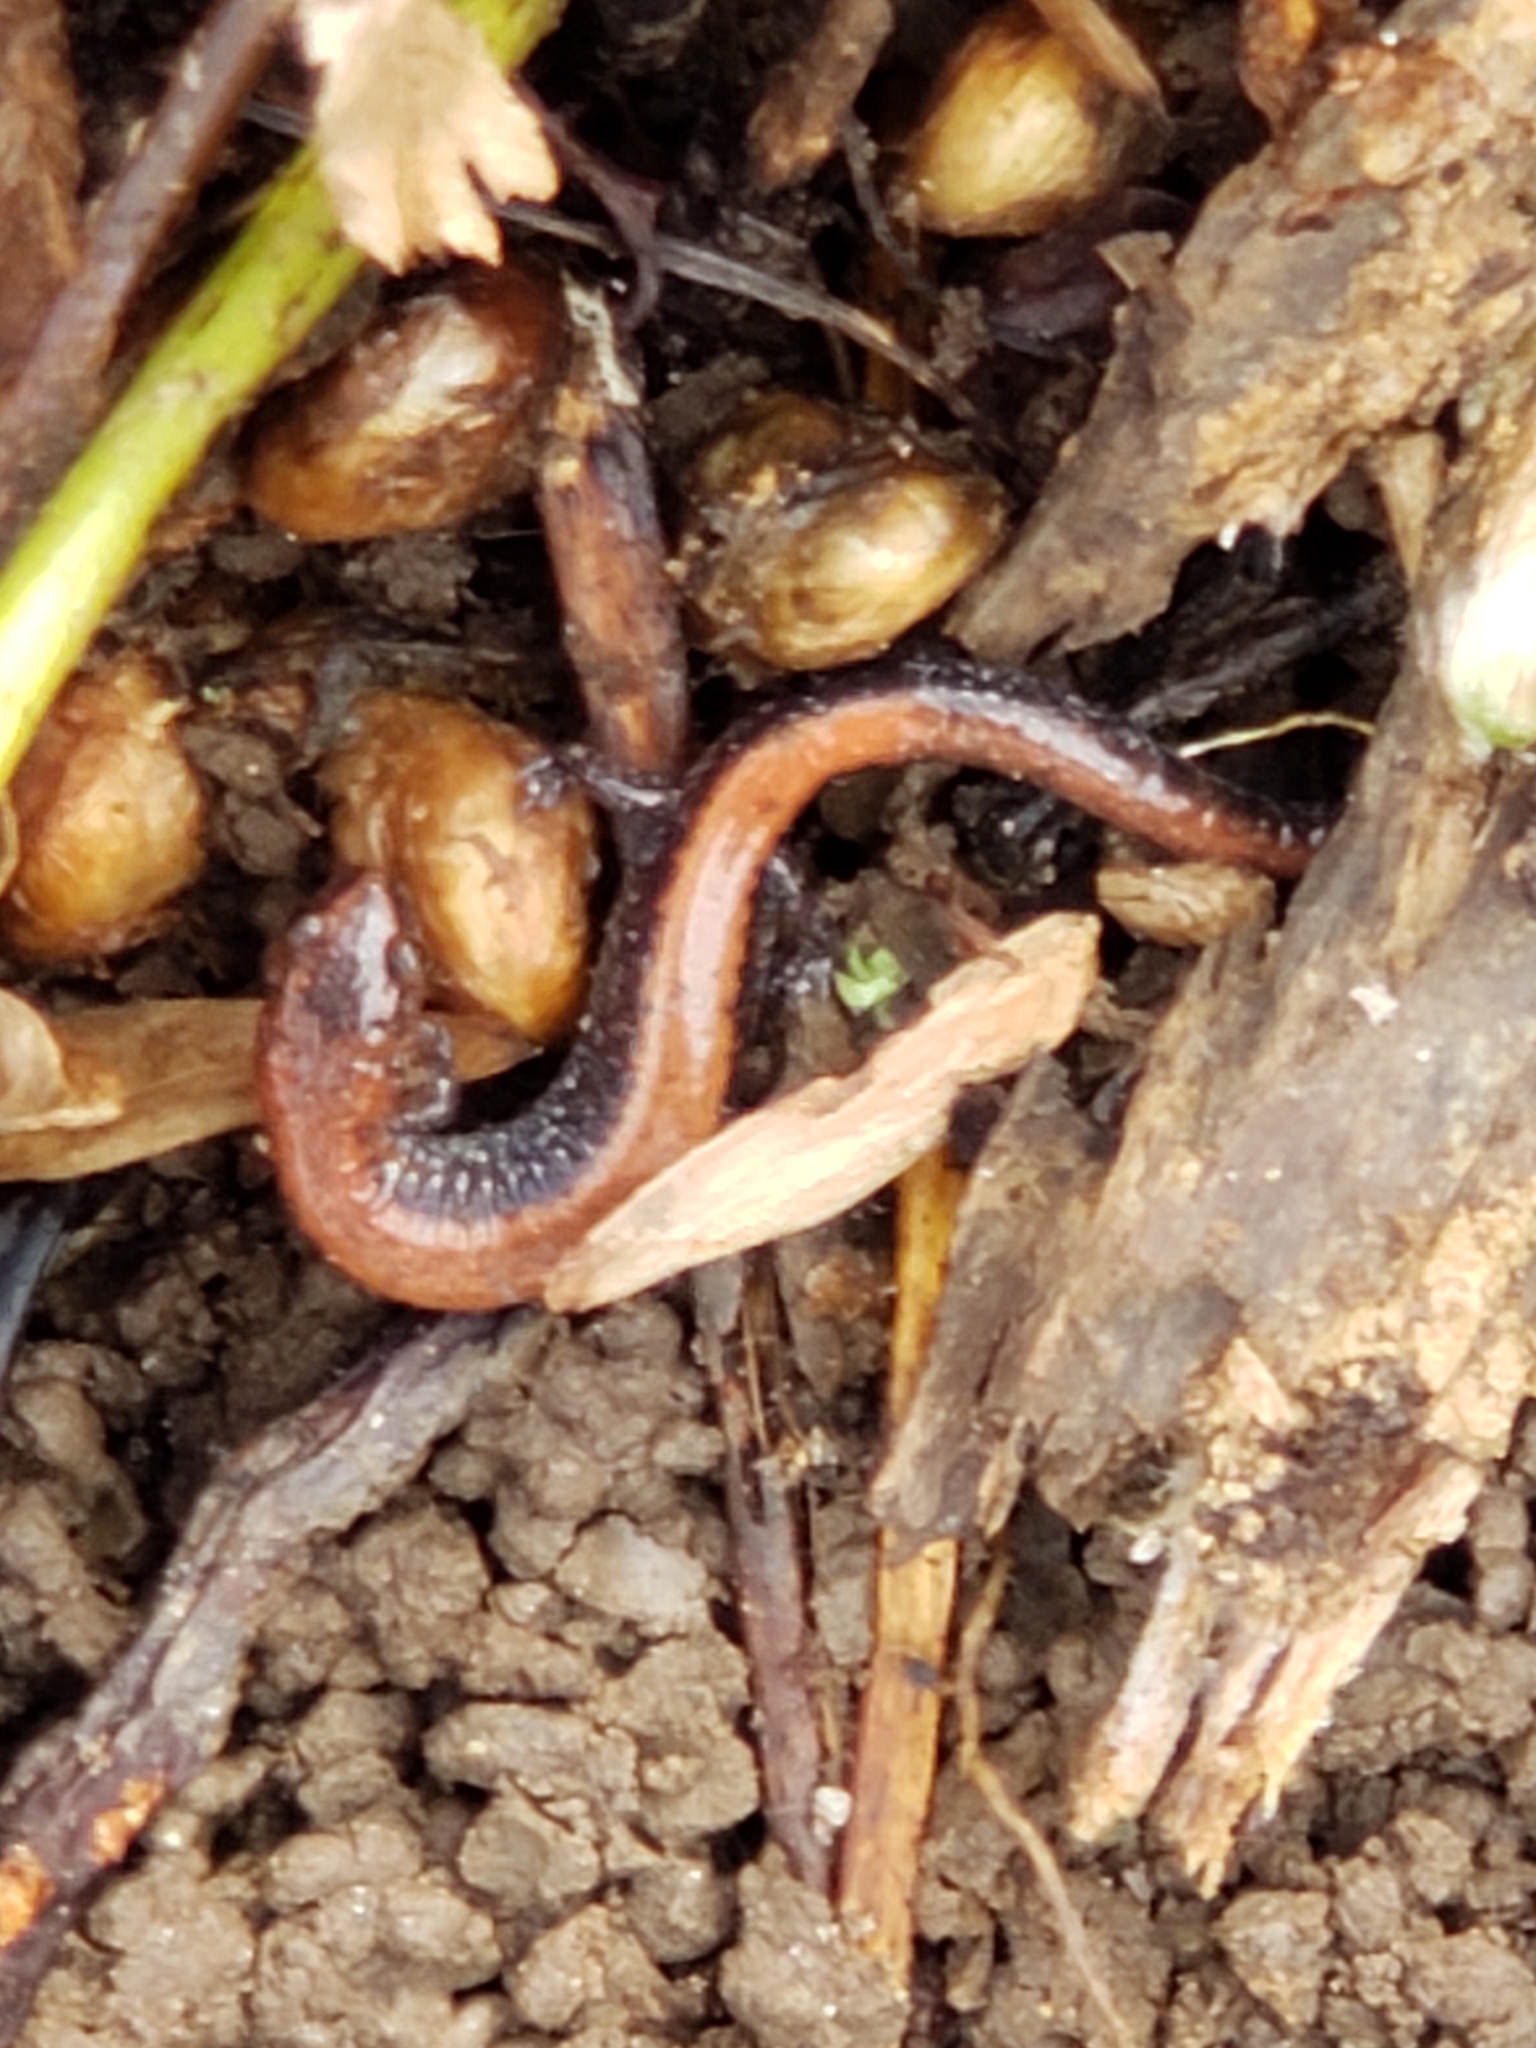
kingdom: Animalia
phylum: Chordata
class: Amphibia
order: Caudata
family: Plethodontidae
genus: Plethodon
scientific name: Plethodon cinereus
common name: Redback salamander
